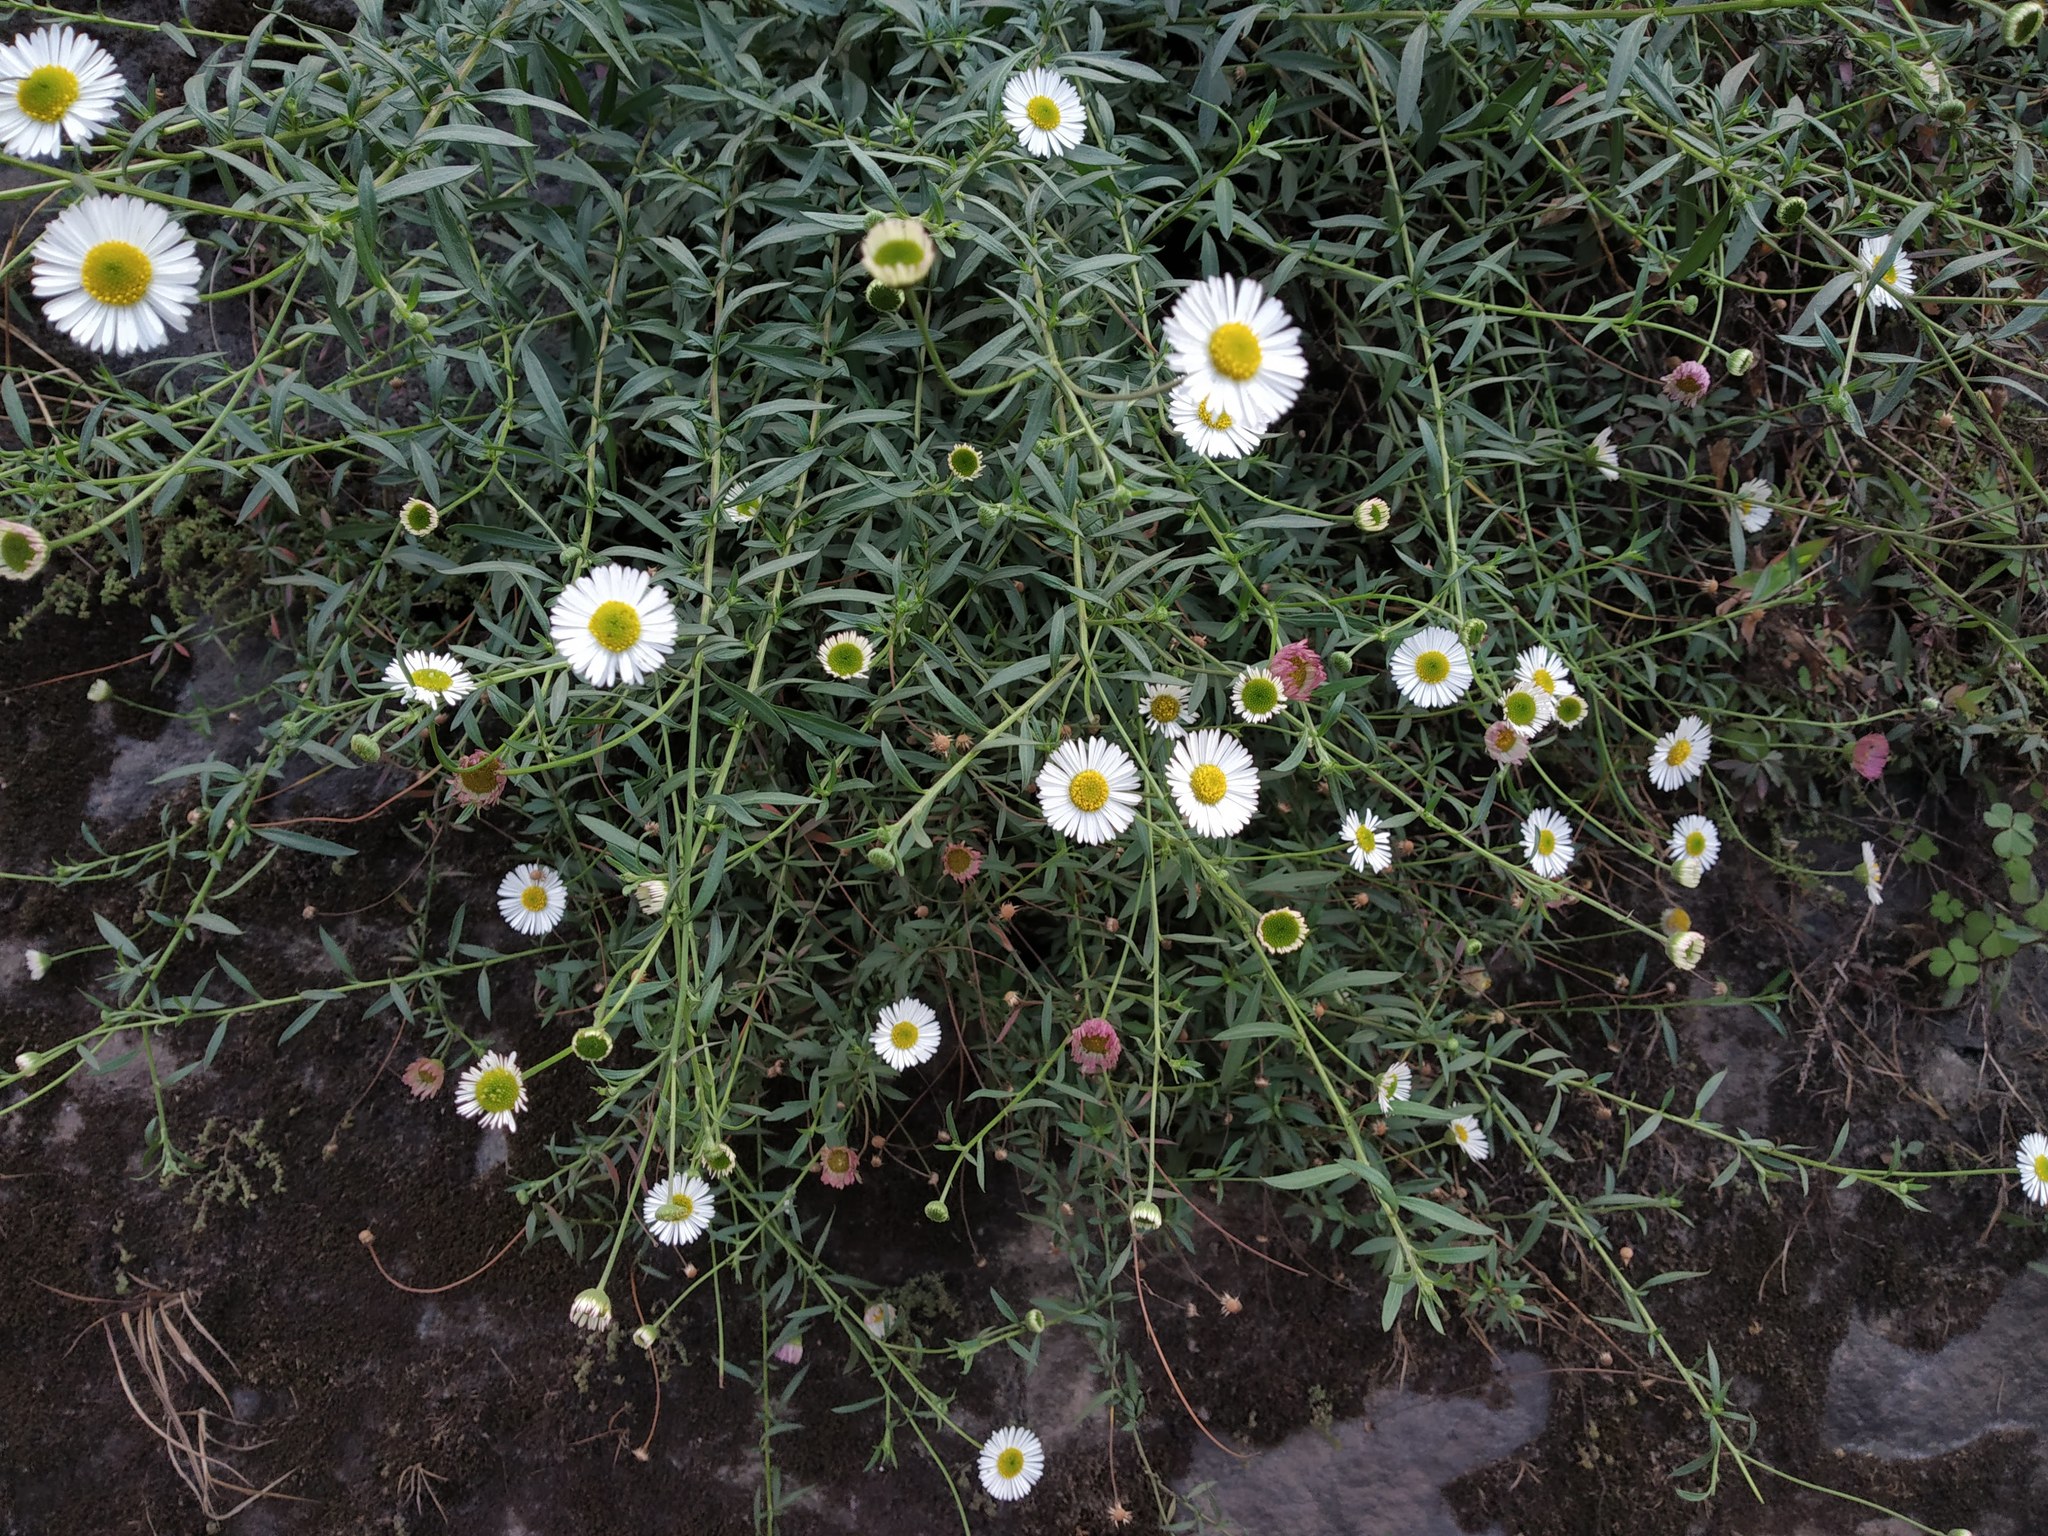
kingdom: Plantae
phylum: Tracheophyta
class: Magnoliopsida
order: Asterales
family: Asteraceae
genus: Erigeron
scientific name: Erigeron strigosus
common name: Common eastern fleabane
